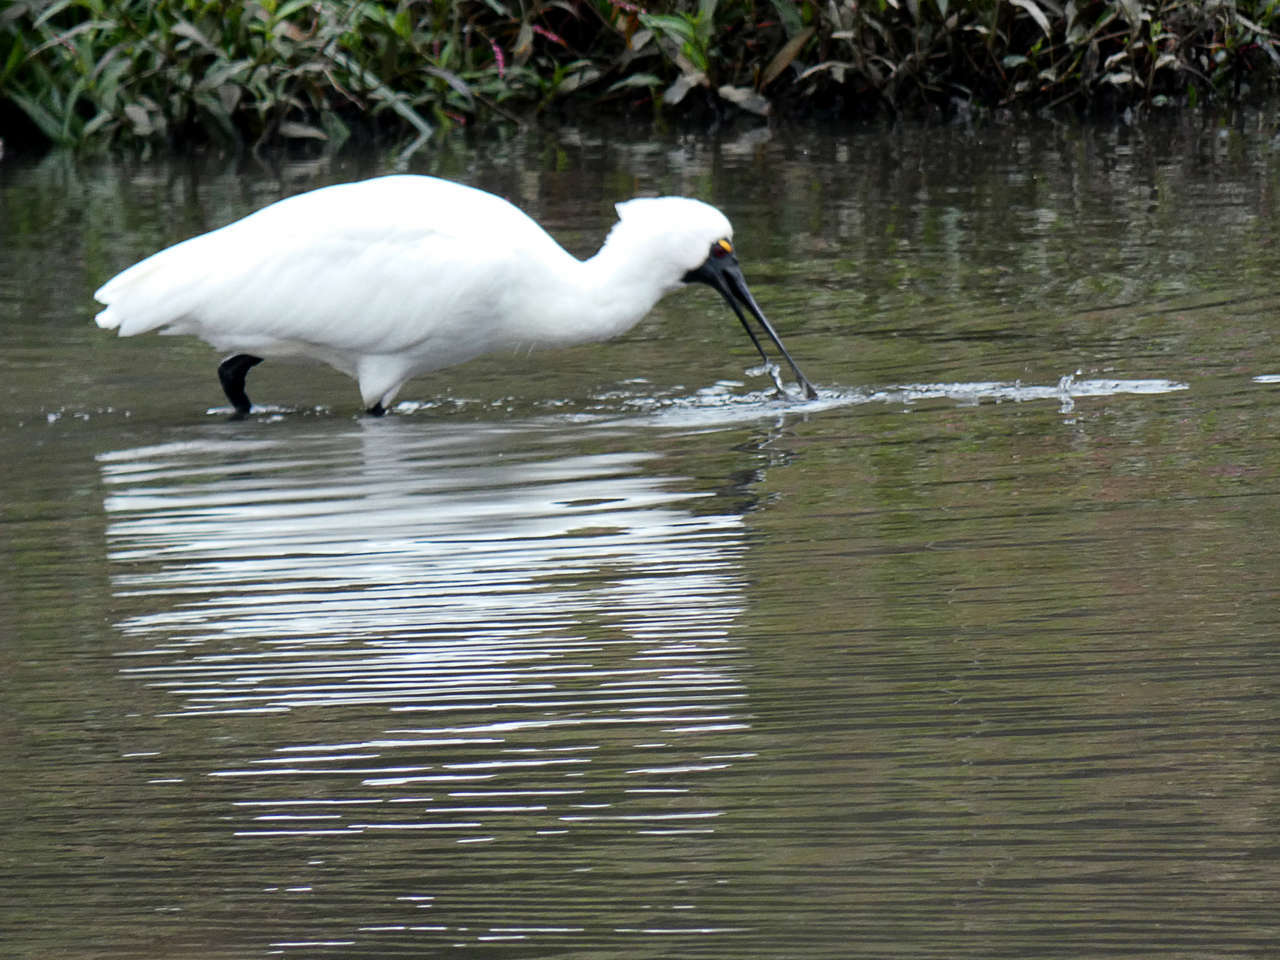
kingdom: Animalia
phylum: Chordata
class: Aves
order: Pelecaniformes
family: Threskiornithidae
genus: Platalea
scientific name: Platalea regia
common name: Royal spoonbill
